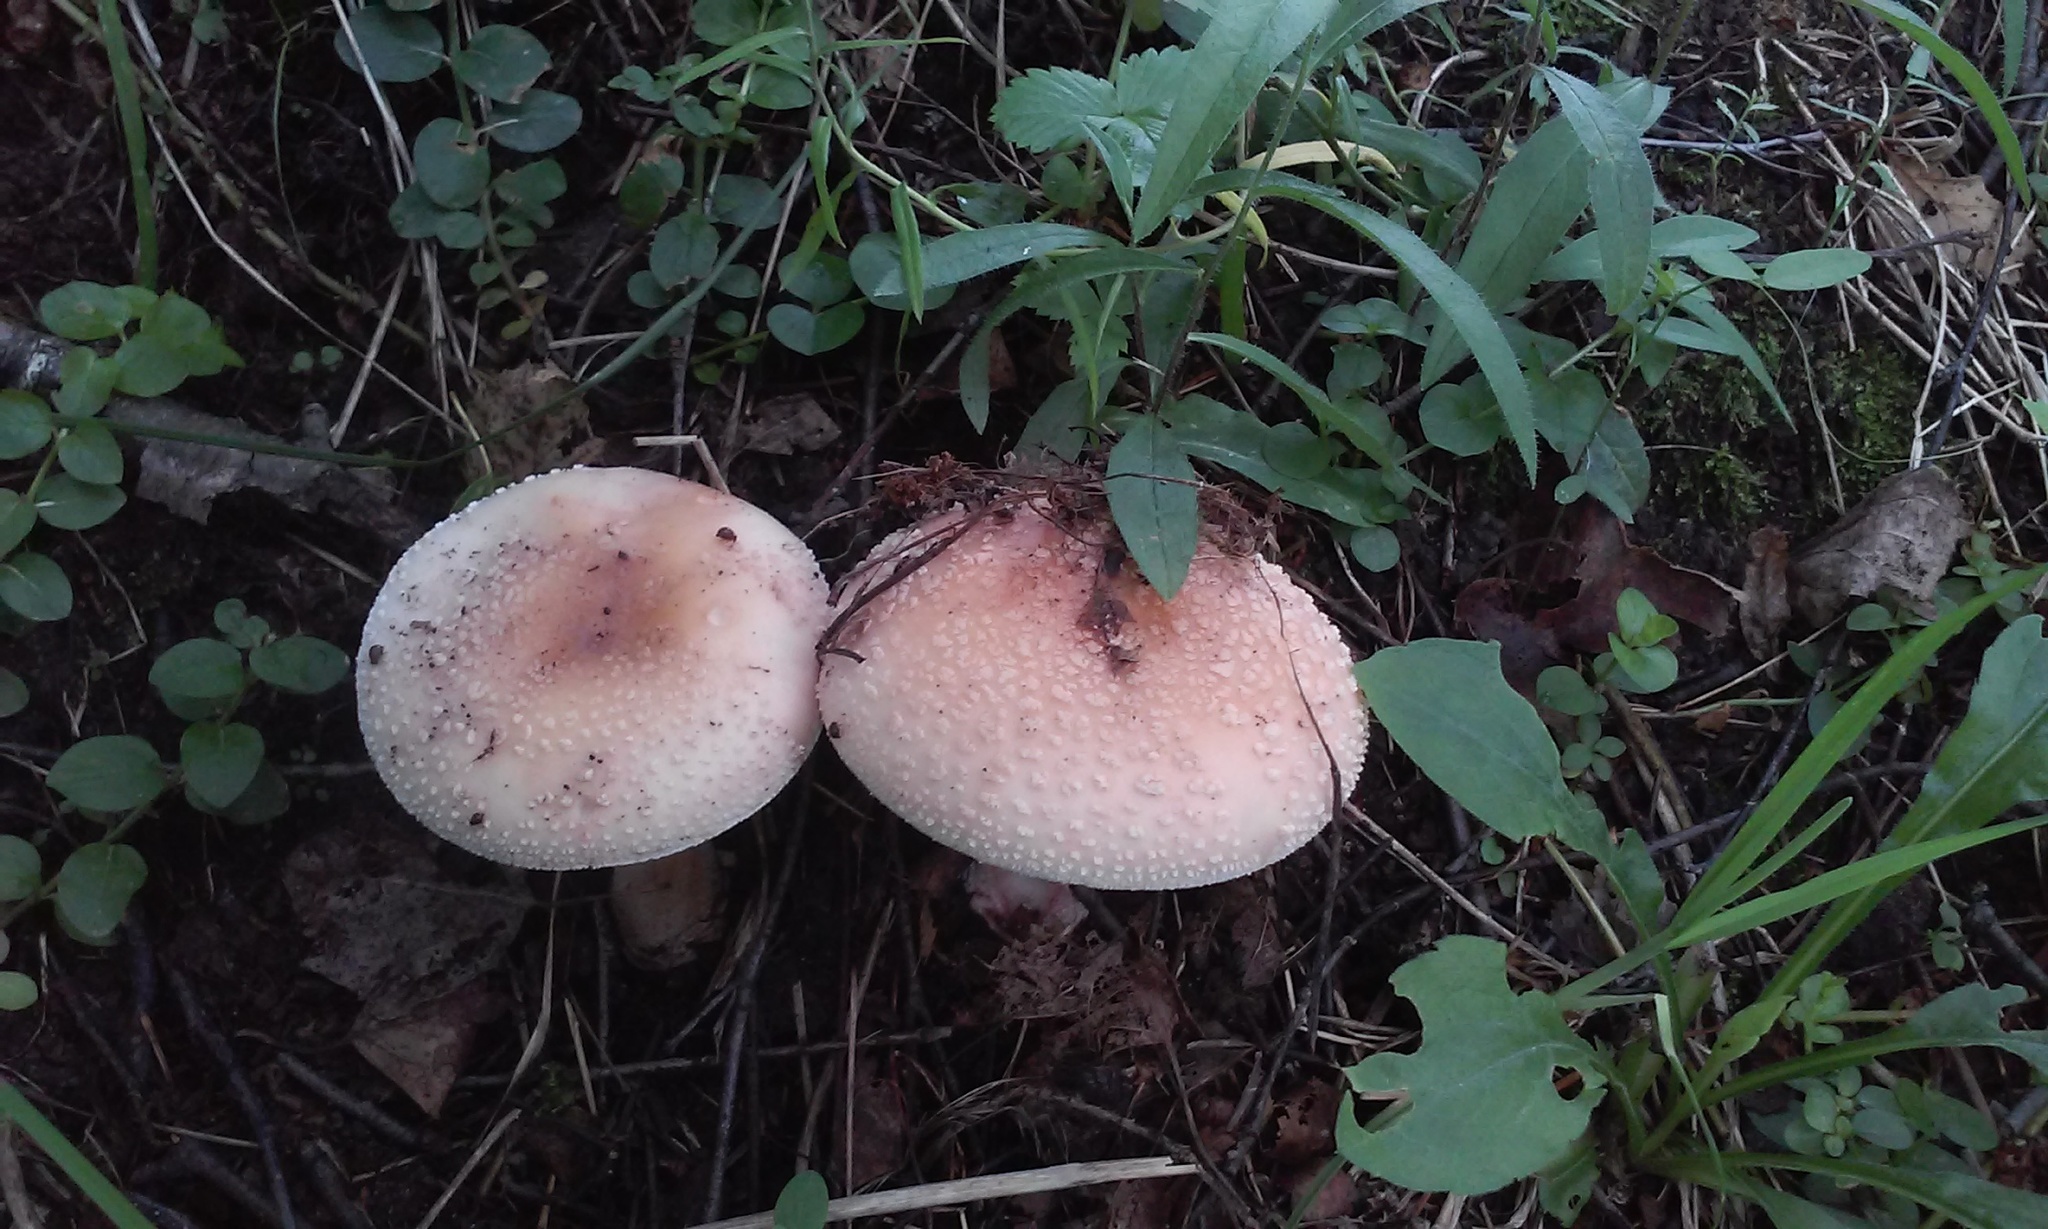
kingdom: Fungi
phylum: Basidiomycota
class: Agaricomycetes
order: Agaricales
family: Amanitaceae
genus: Amanita
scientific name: Amanita rubescens
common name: Blusher
